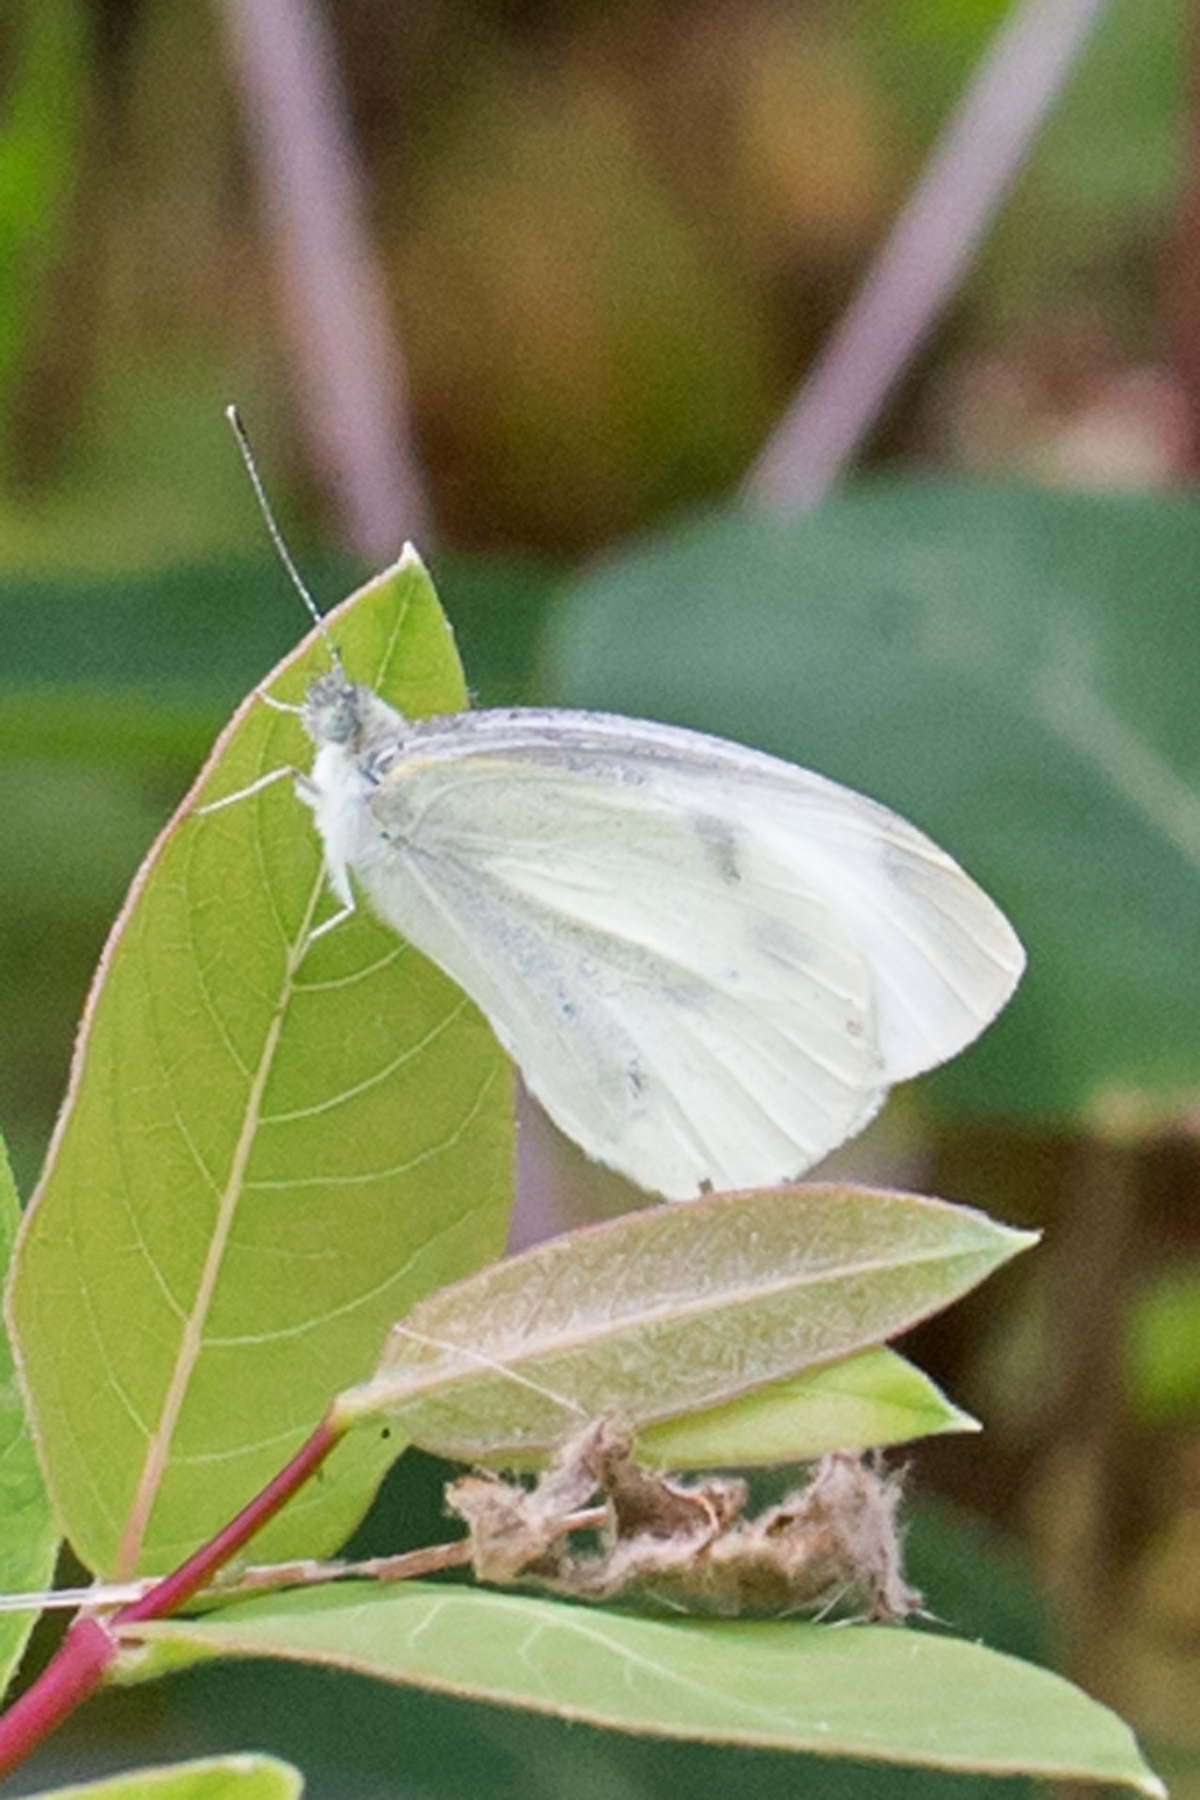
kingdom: Animalia
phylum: Arthropoda
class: Insecta
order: Lepidoptera
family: Pieridae
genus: Pieris
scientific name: Pieris rapae
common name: Small white
